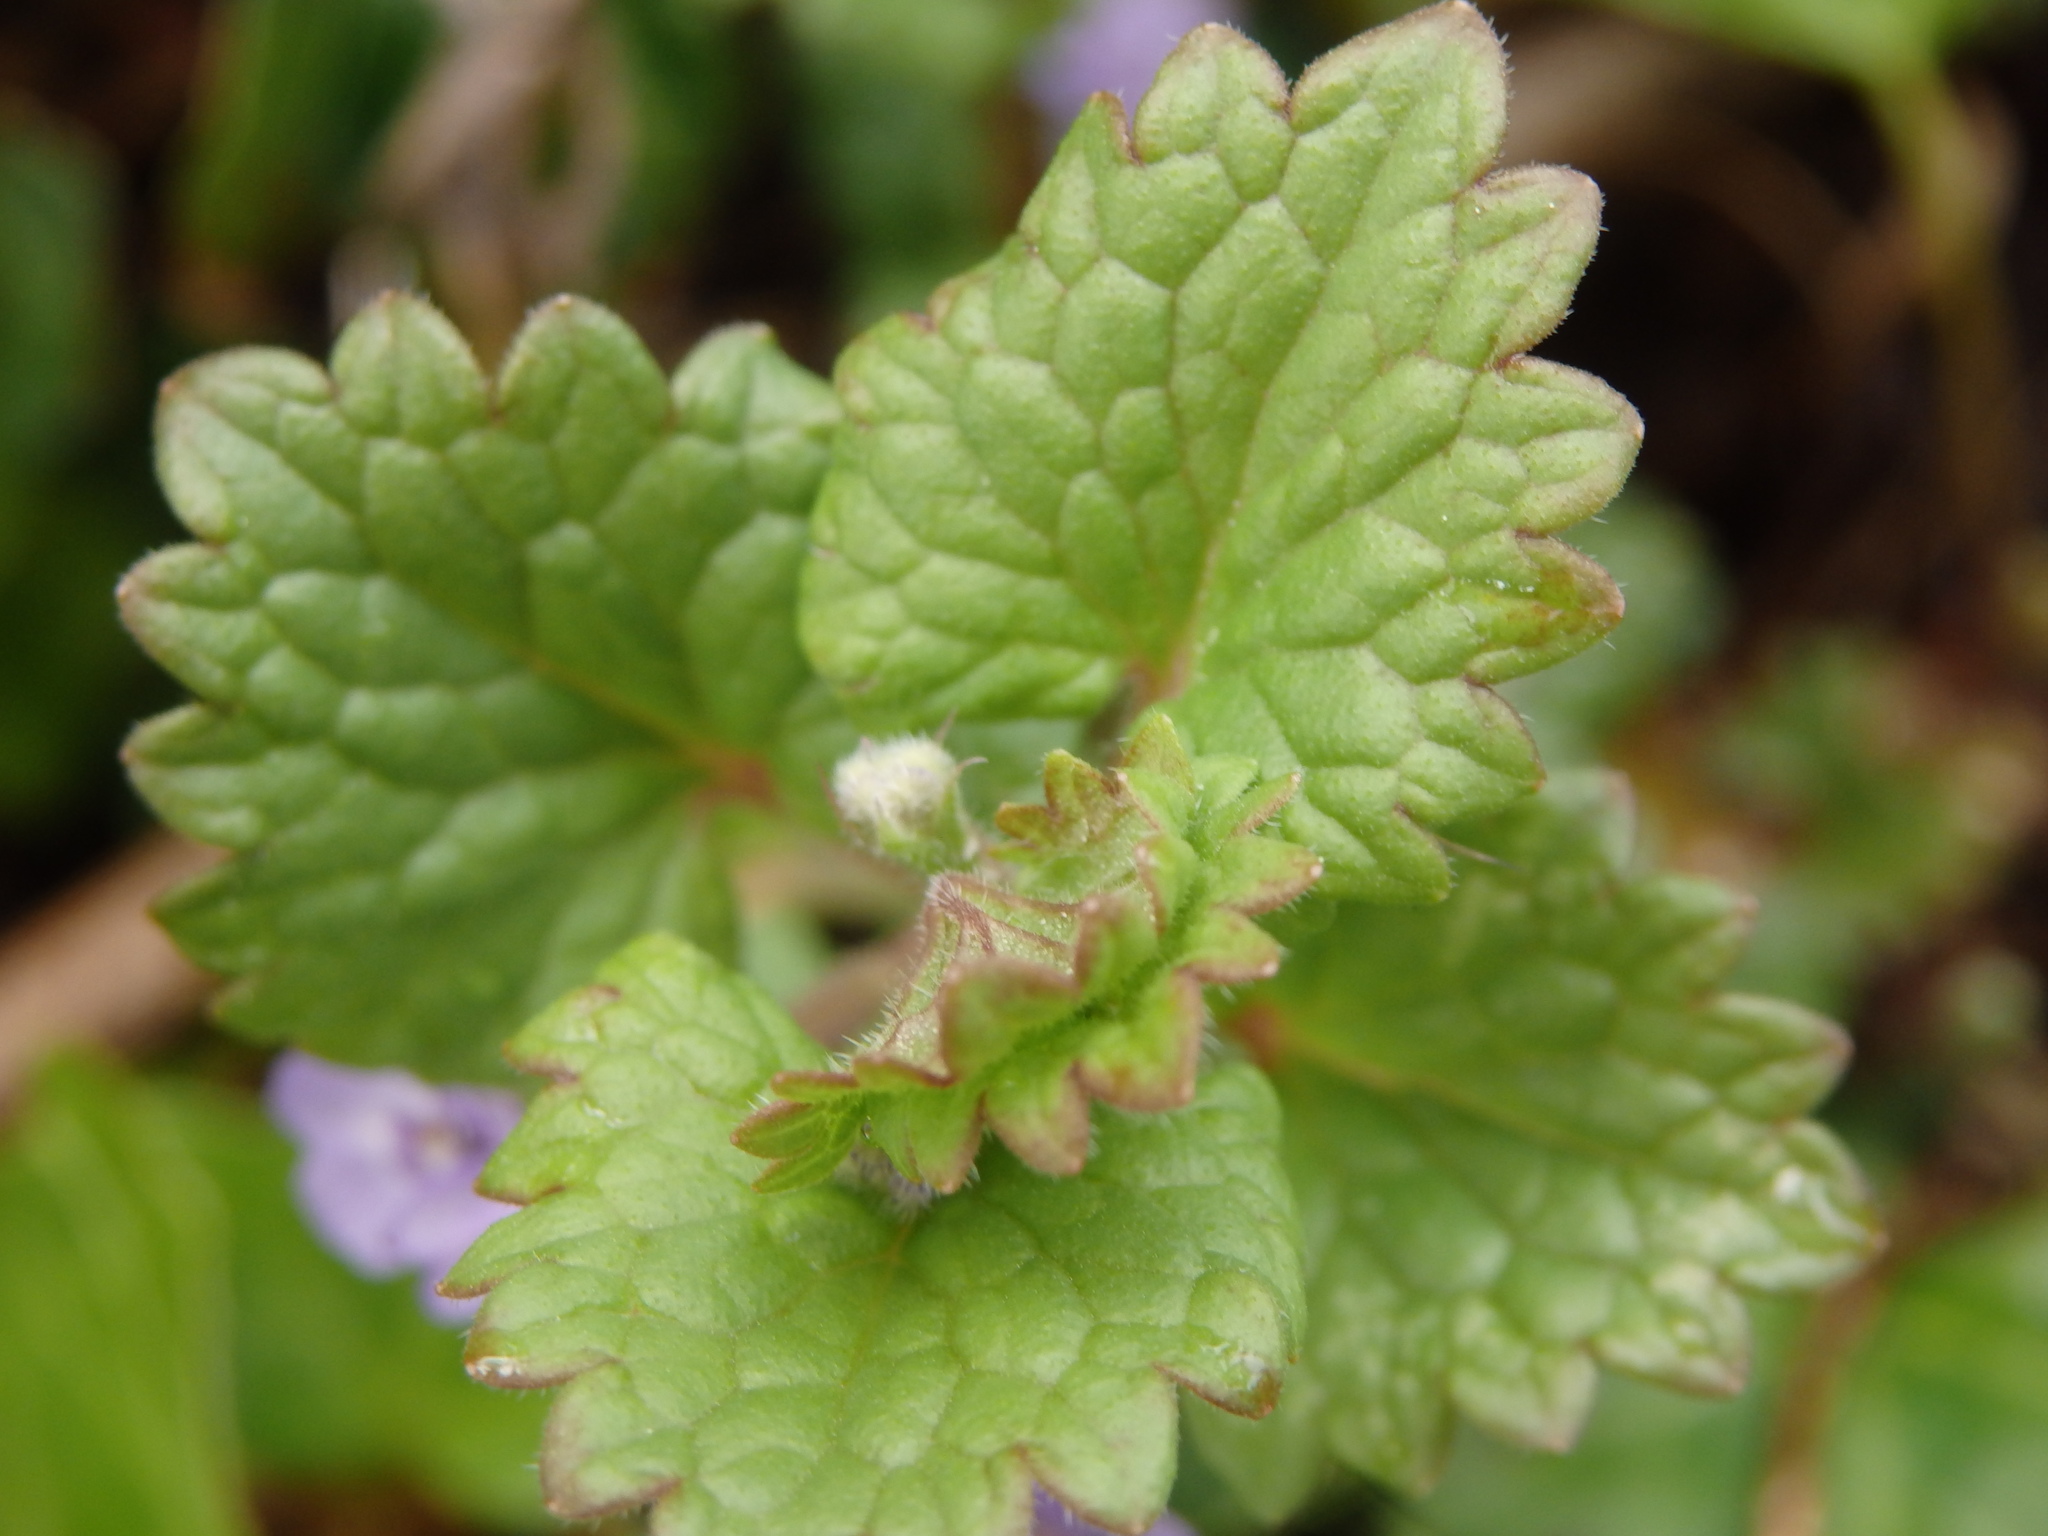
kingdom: Plantae
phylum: Tracheophyta
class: Magnoliopsida
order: Lamiales
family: Lamiaceae
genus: Glechoma
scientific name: Glechoma hederacea
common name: Ground ivy
